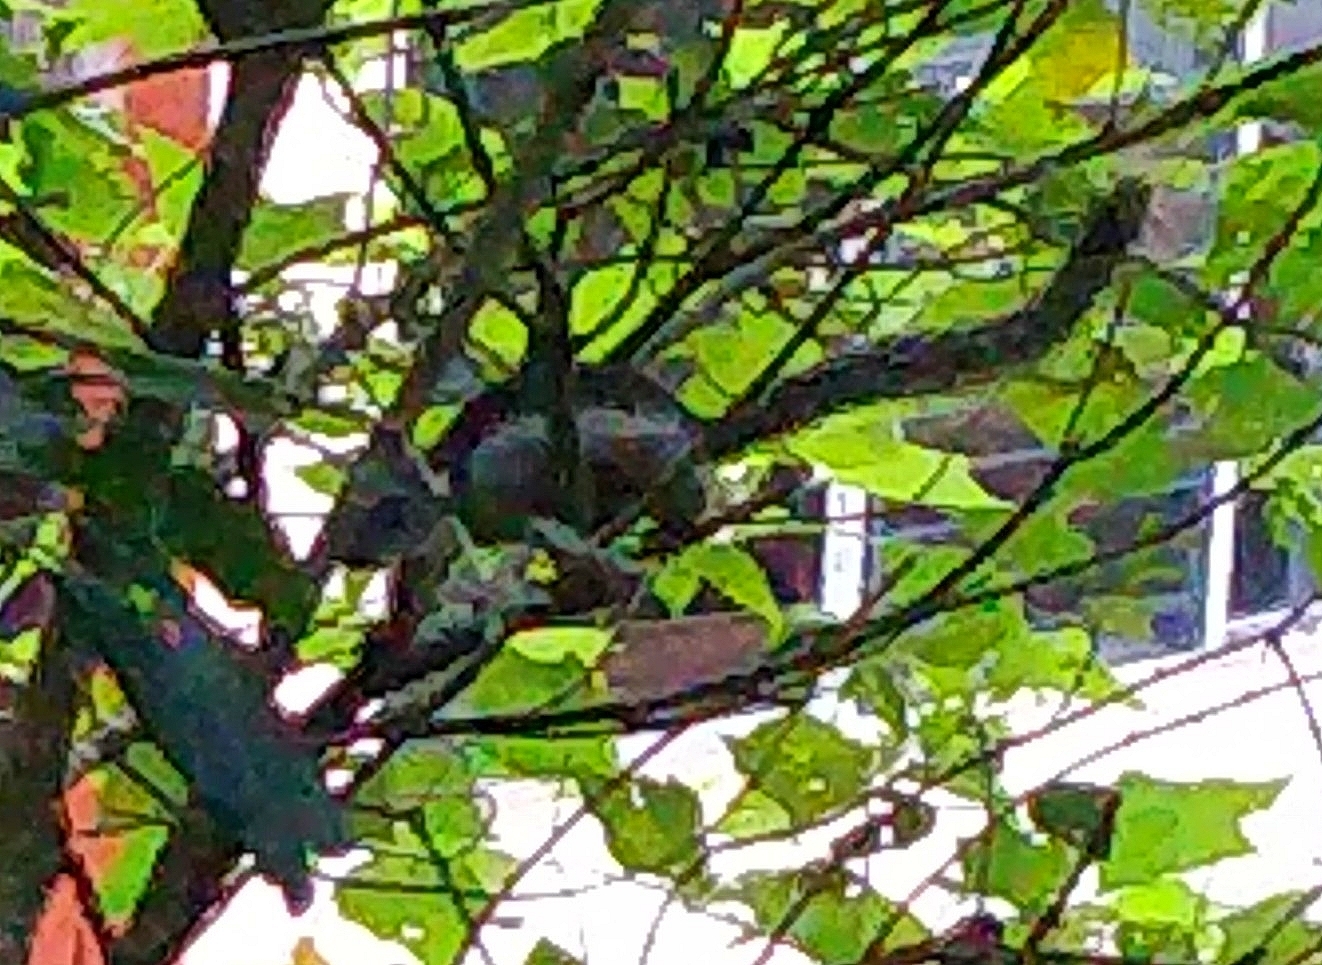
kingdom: Animalia
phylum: Chordata
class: Mammalia
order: Rodentia
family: Sciuridae
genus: Sciurus
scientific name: Sciurus variegatoides
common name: Variegated squirrel
